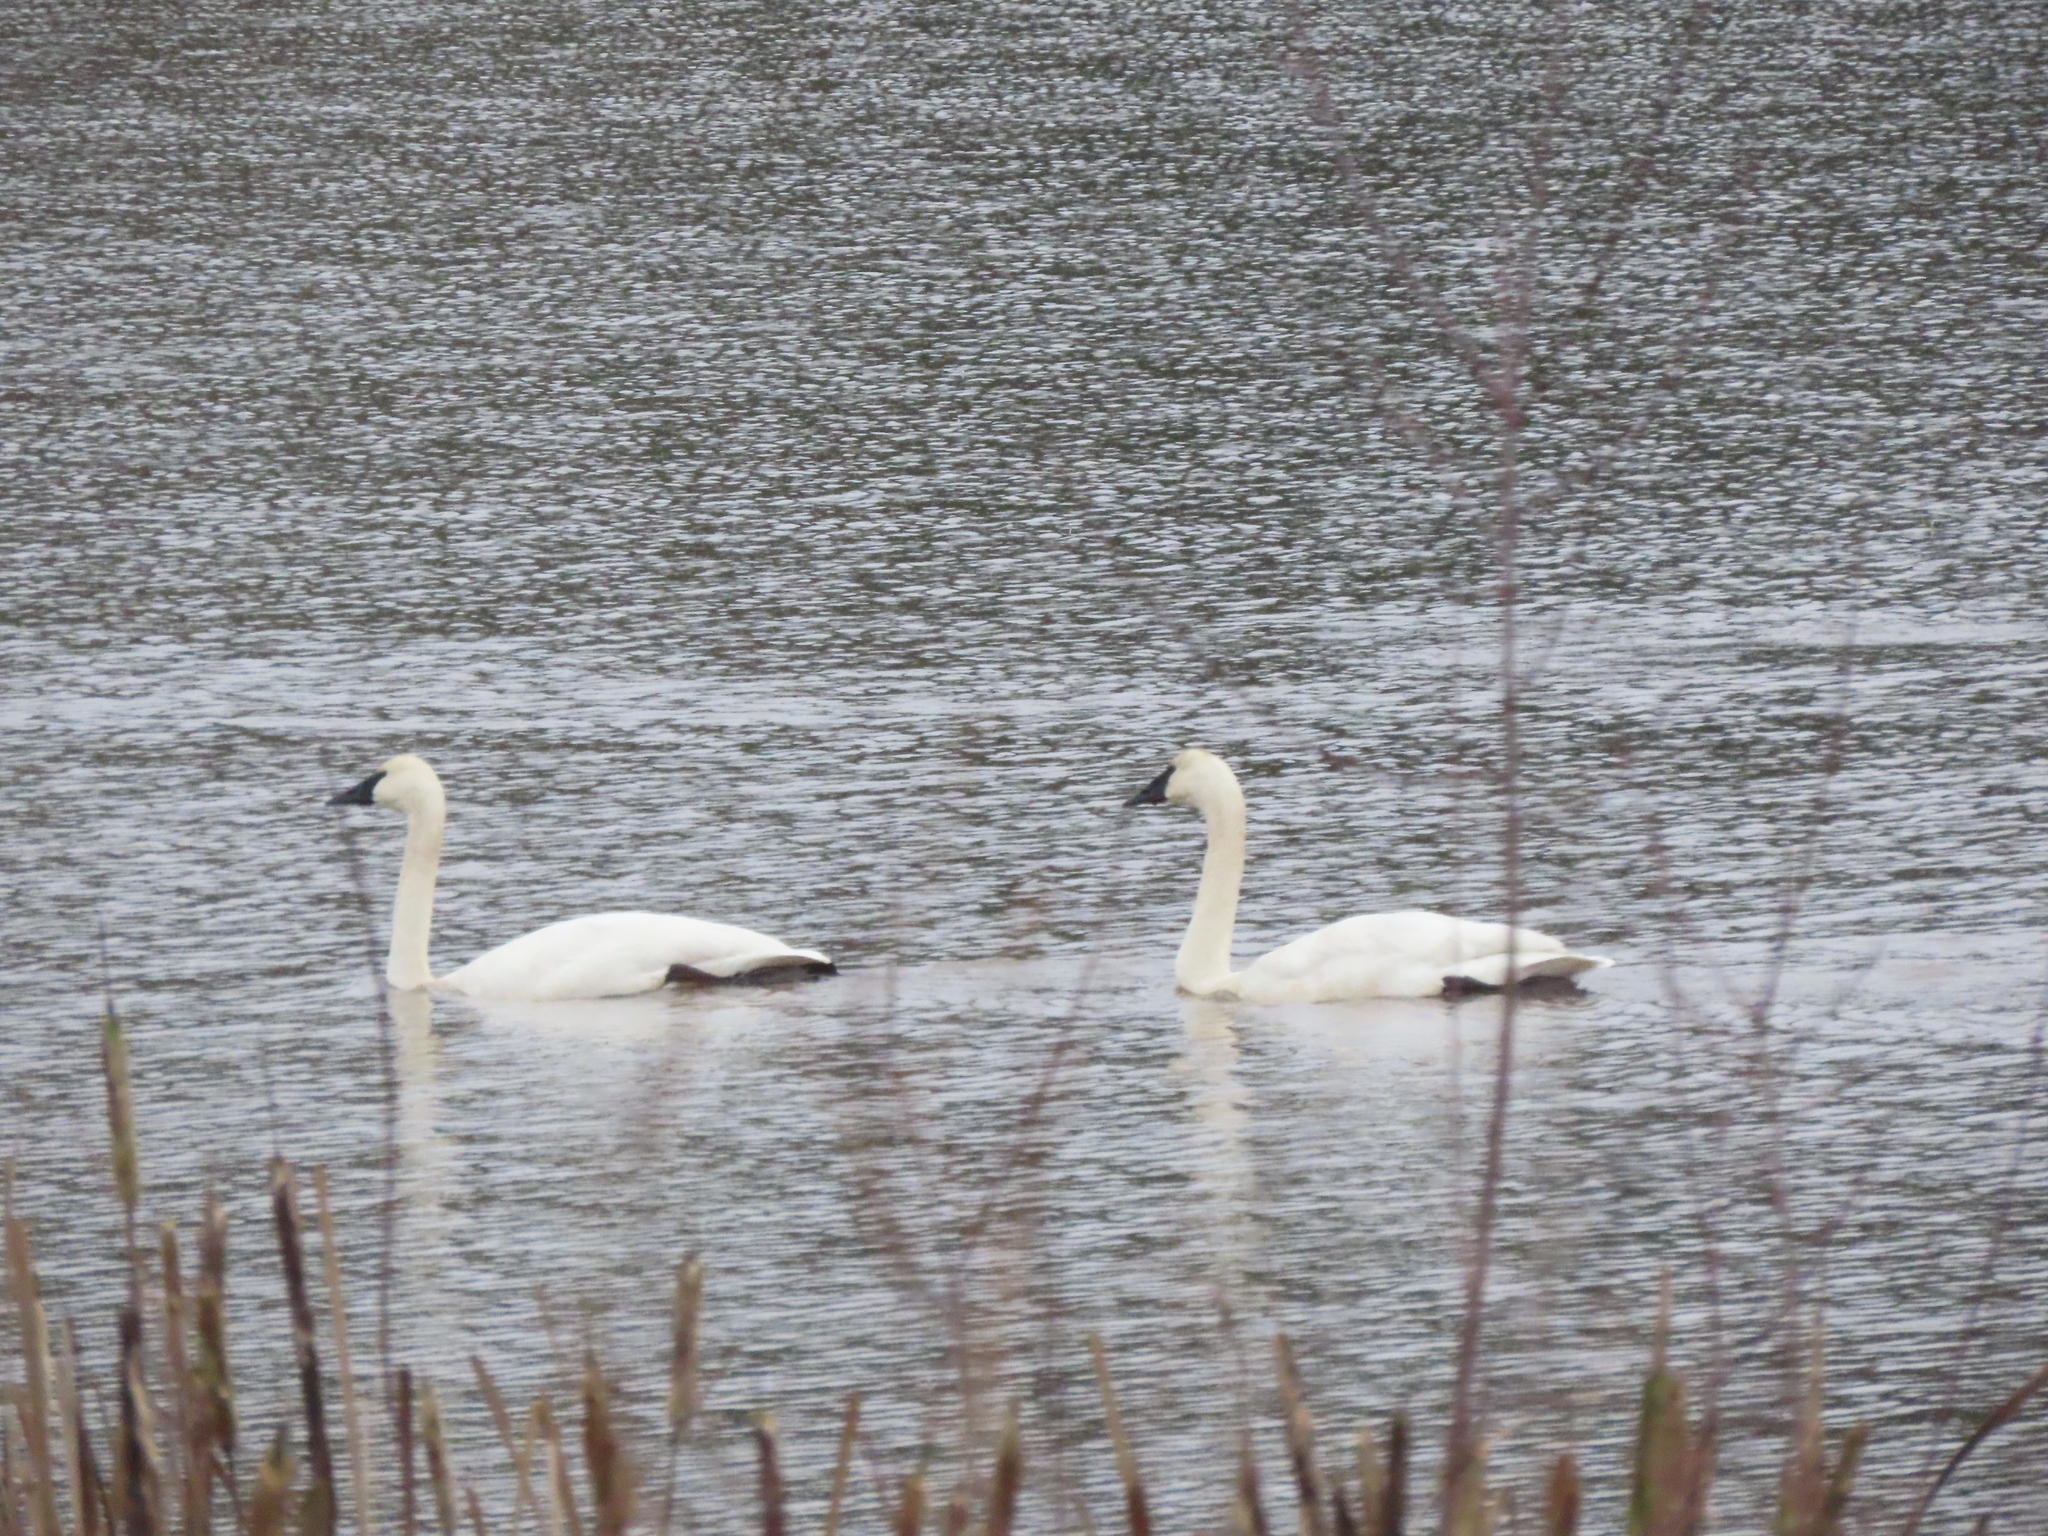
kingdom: Animalia
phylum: Chordata
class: Aves
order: Anseriformes
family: Anatidae
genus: Cygnus
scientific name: Cygnus buccinator
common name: Trumpeter swan
